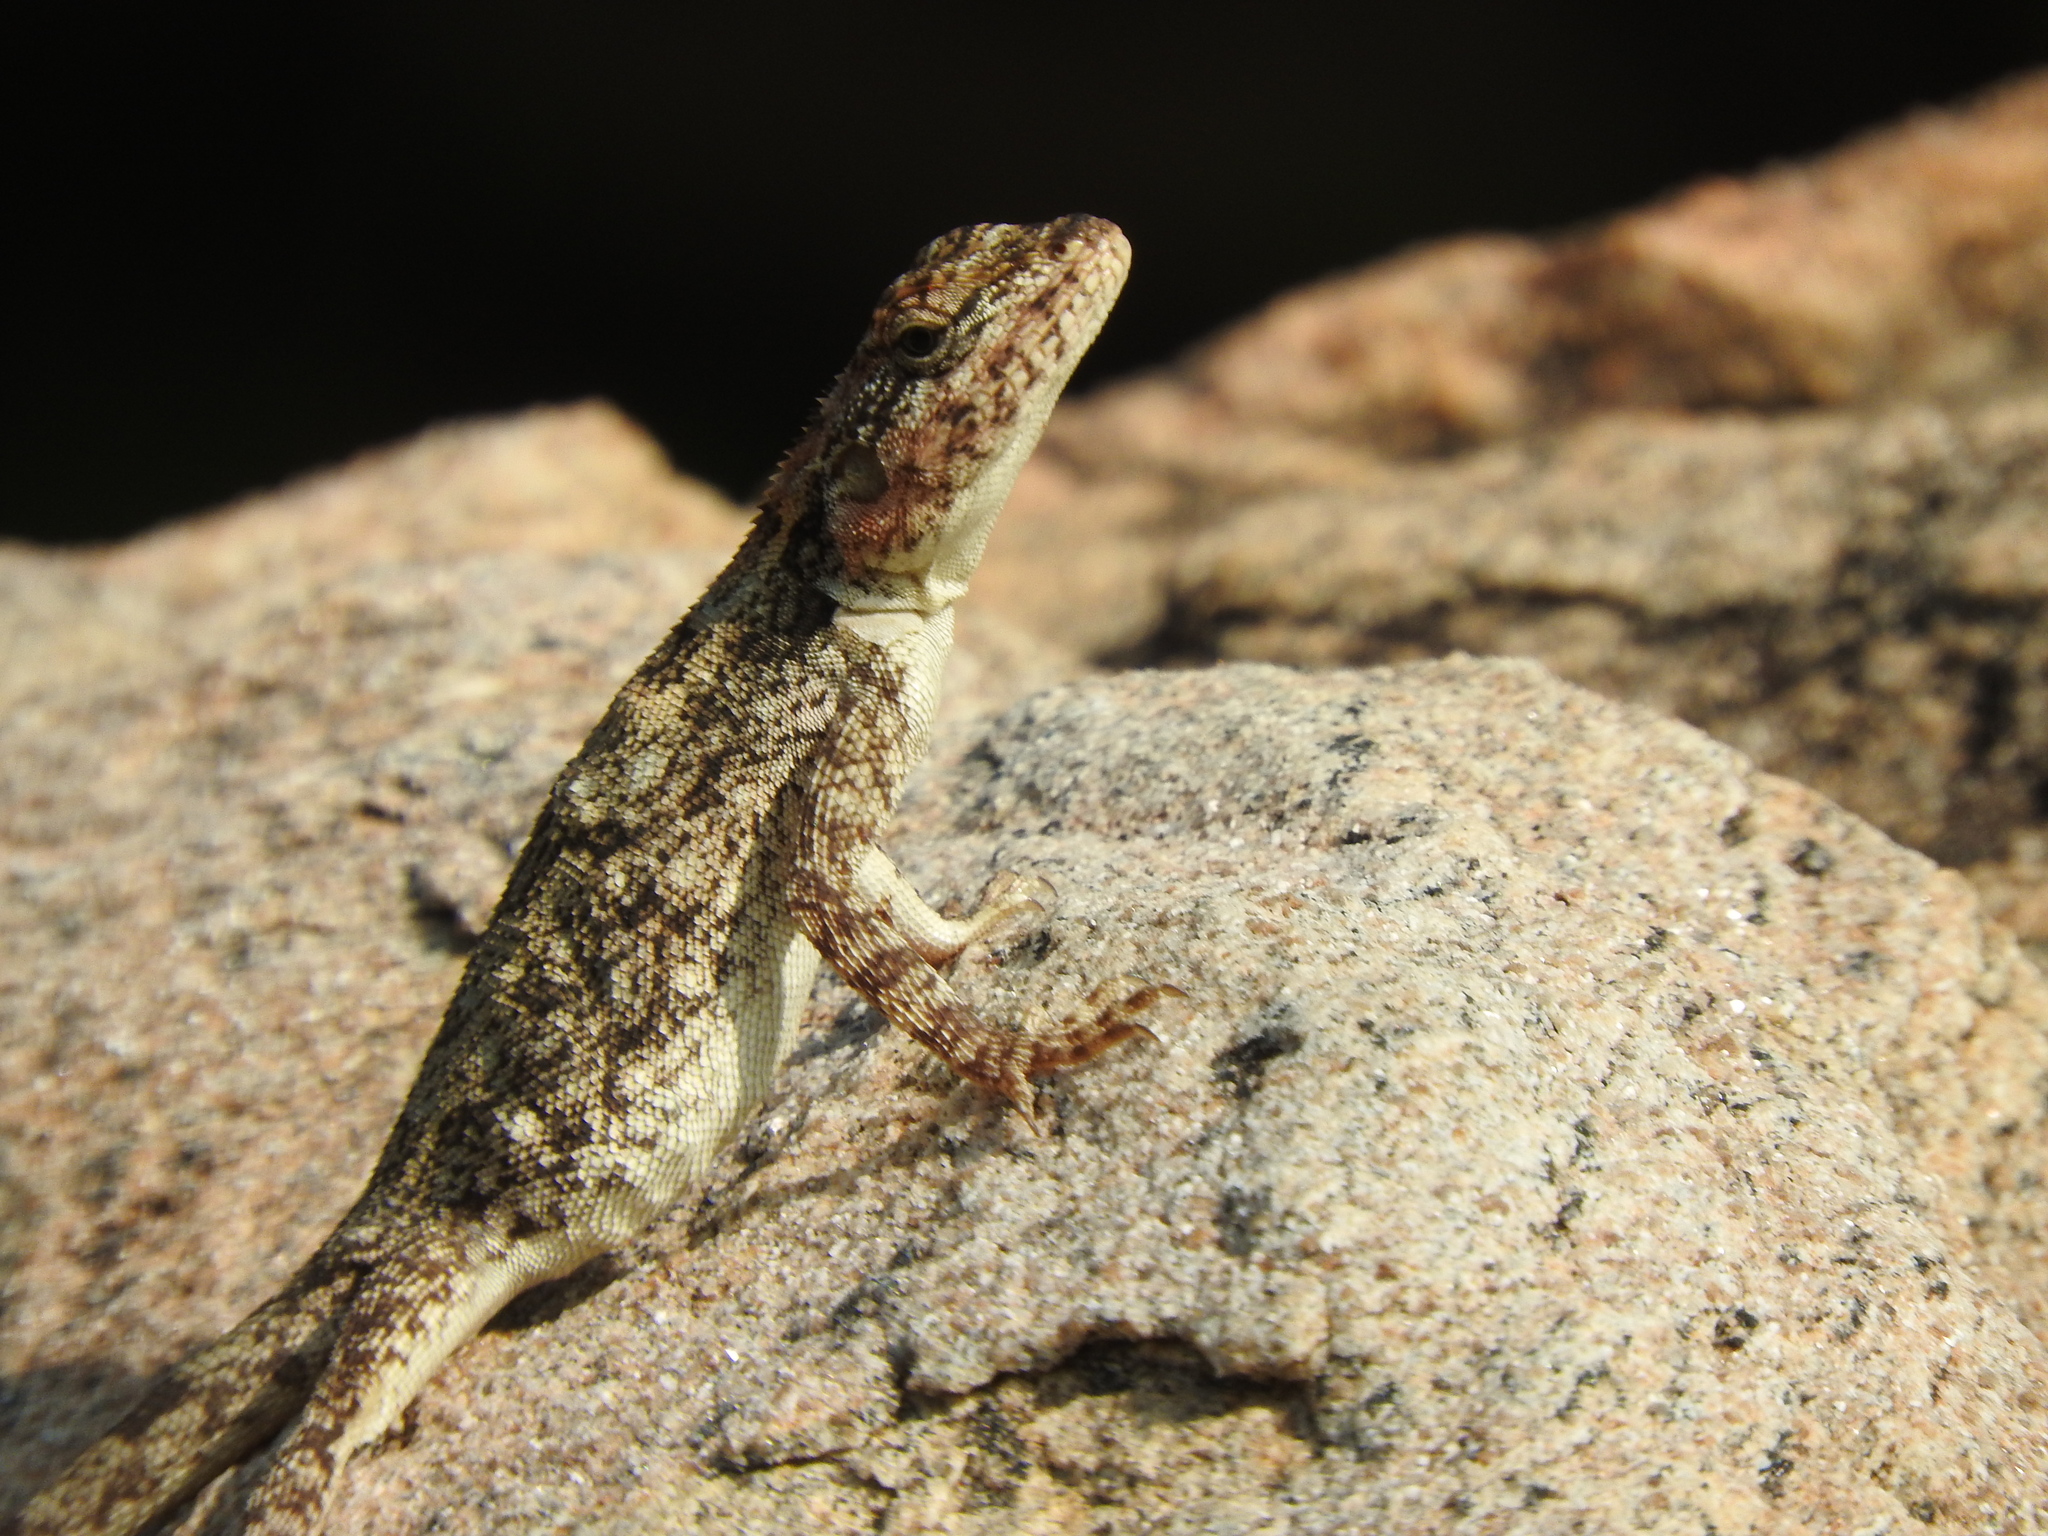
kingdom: Animalia
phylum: Chordata
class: Squamata
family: Agamidae
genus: Psammophilus
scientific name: Psammophilus dorsalis
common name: South indian rock agama
